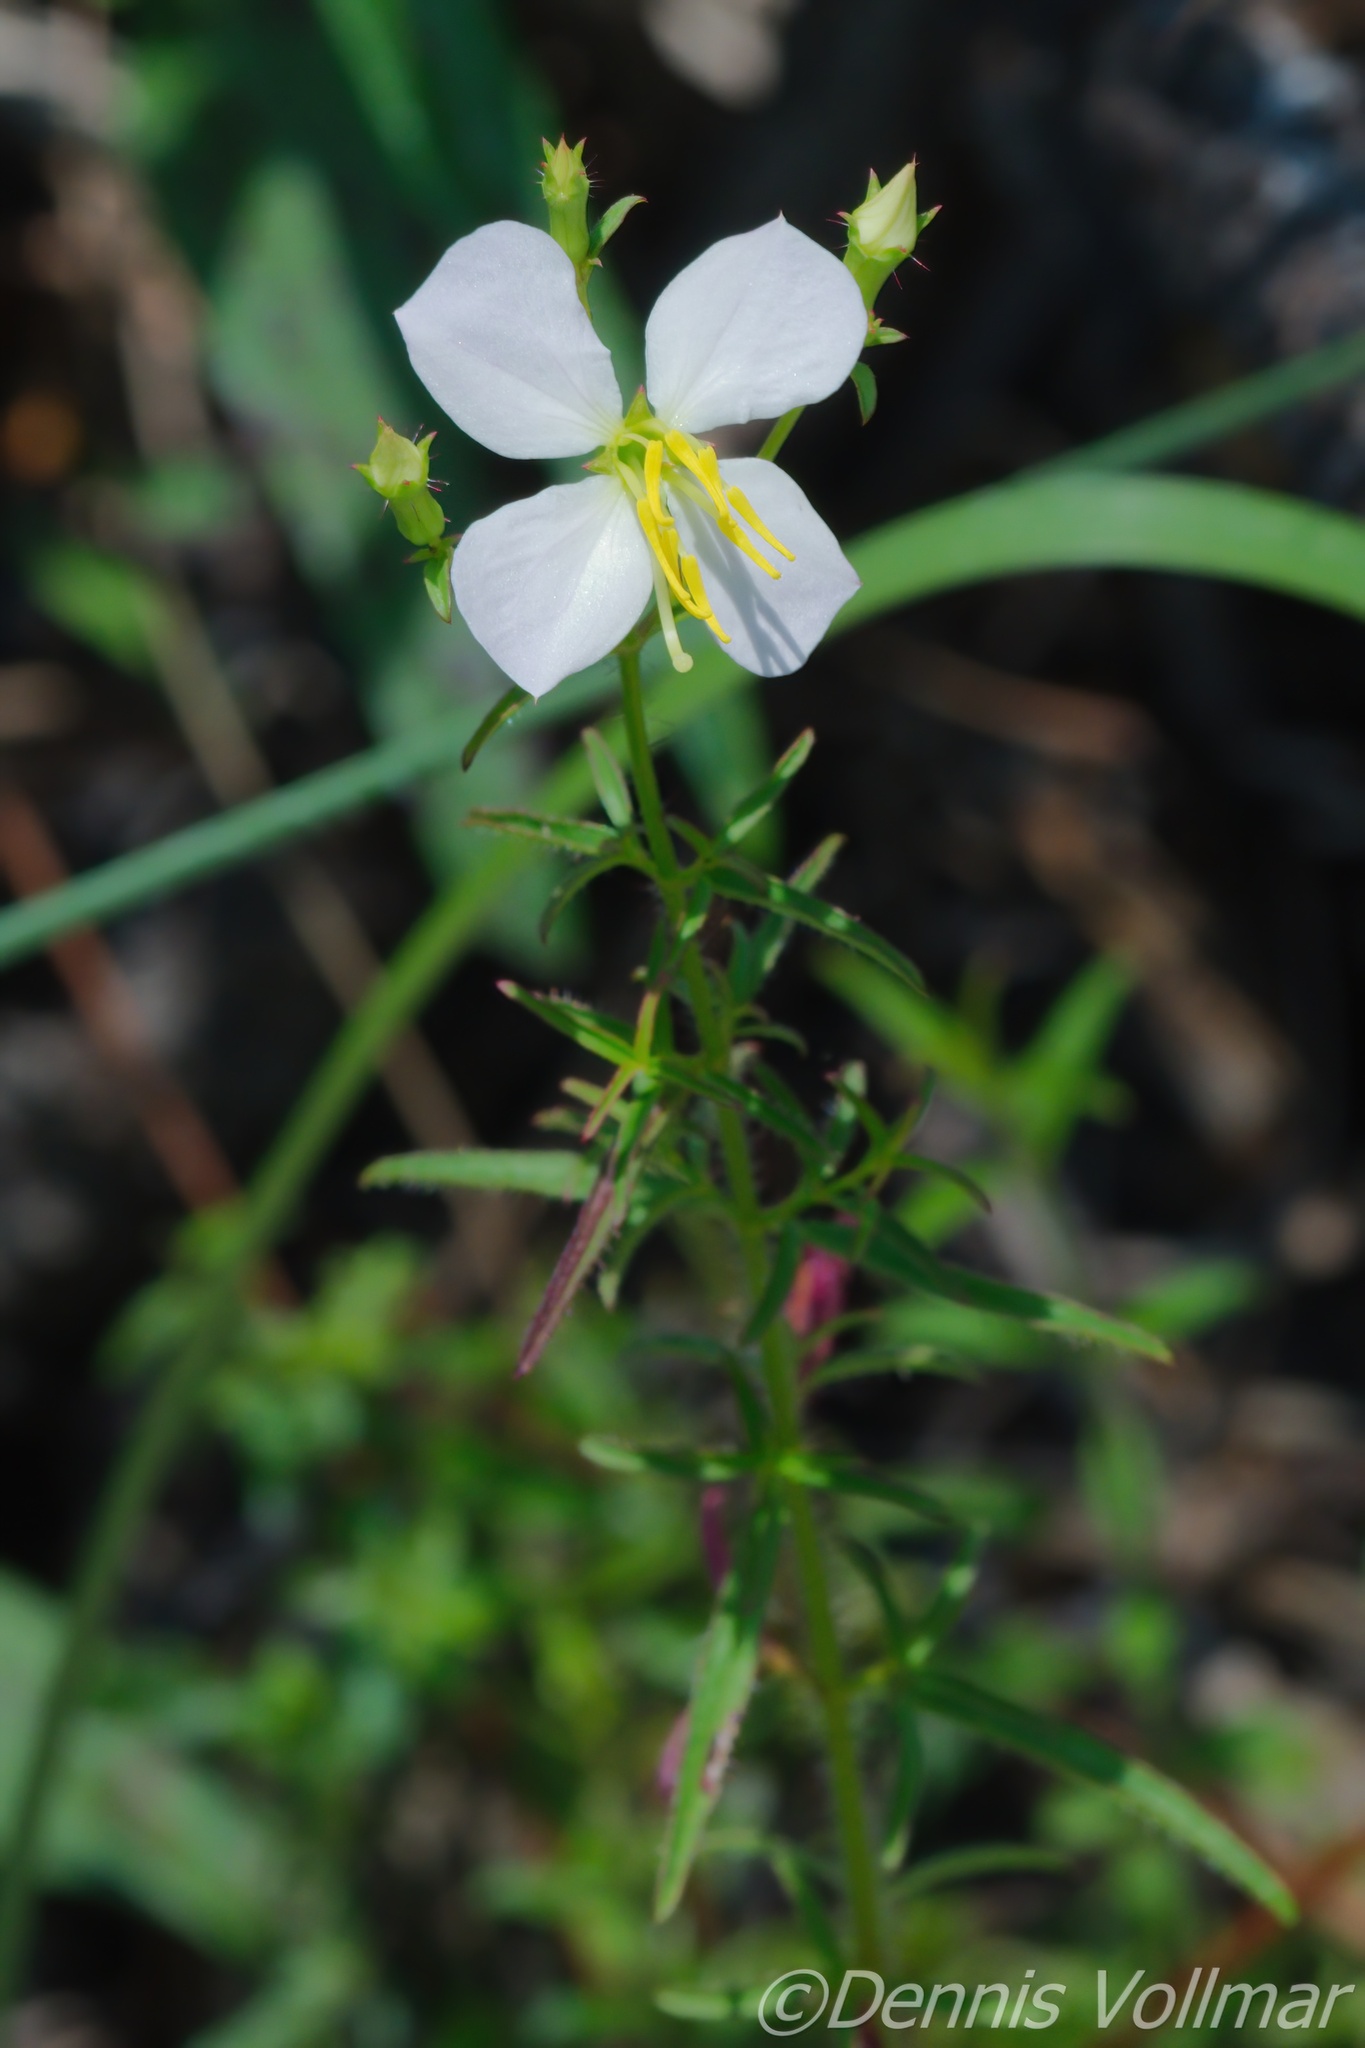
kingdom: Plantae
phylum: Tracheophyta
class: Magnoliopsida
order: Myrtales
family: Melastomataceae
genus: Rhexia
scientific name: Rhexia mariana
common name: Dull meadow-pitcher
